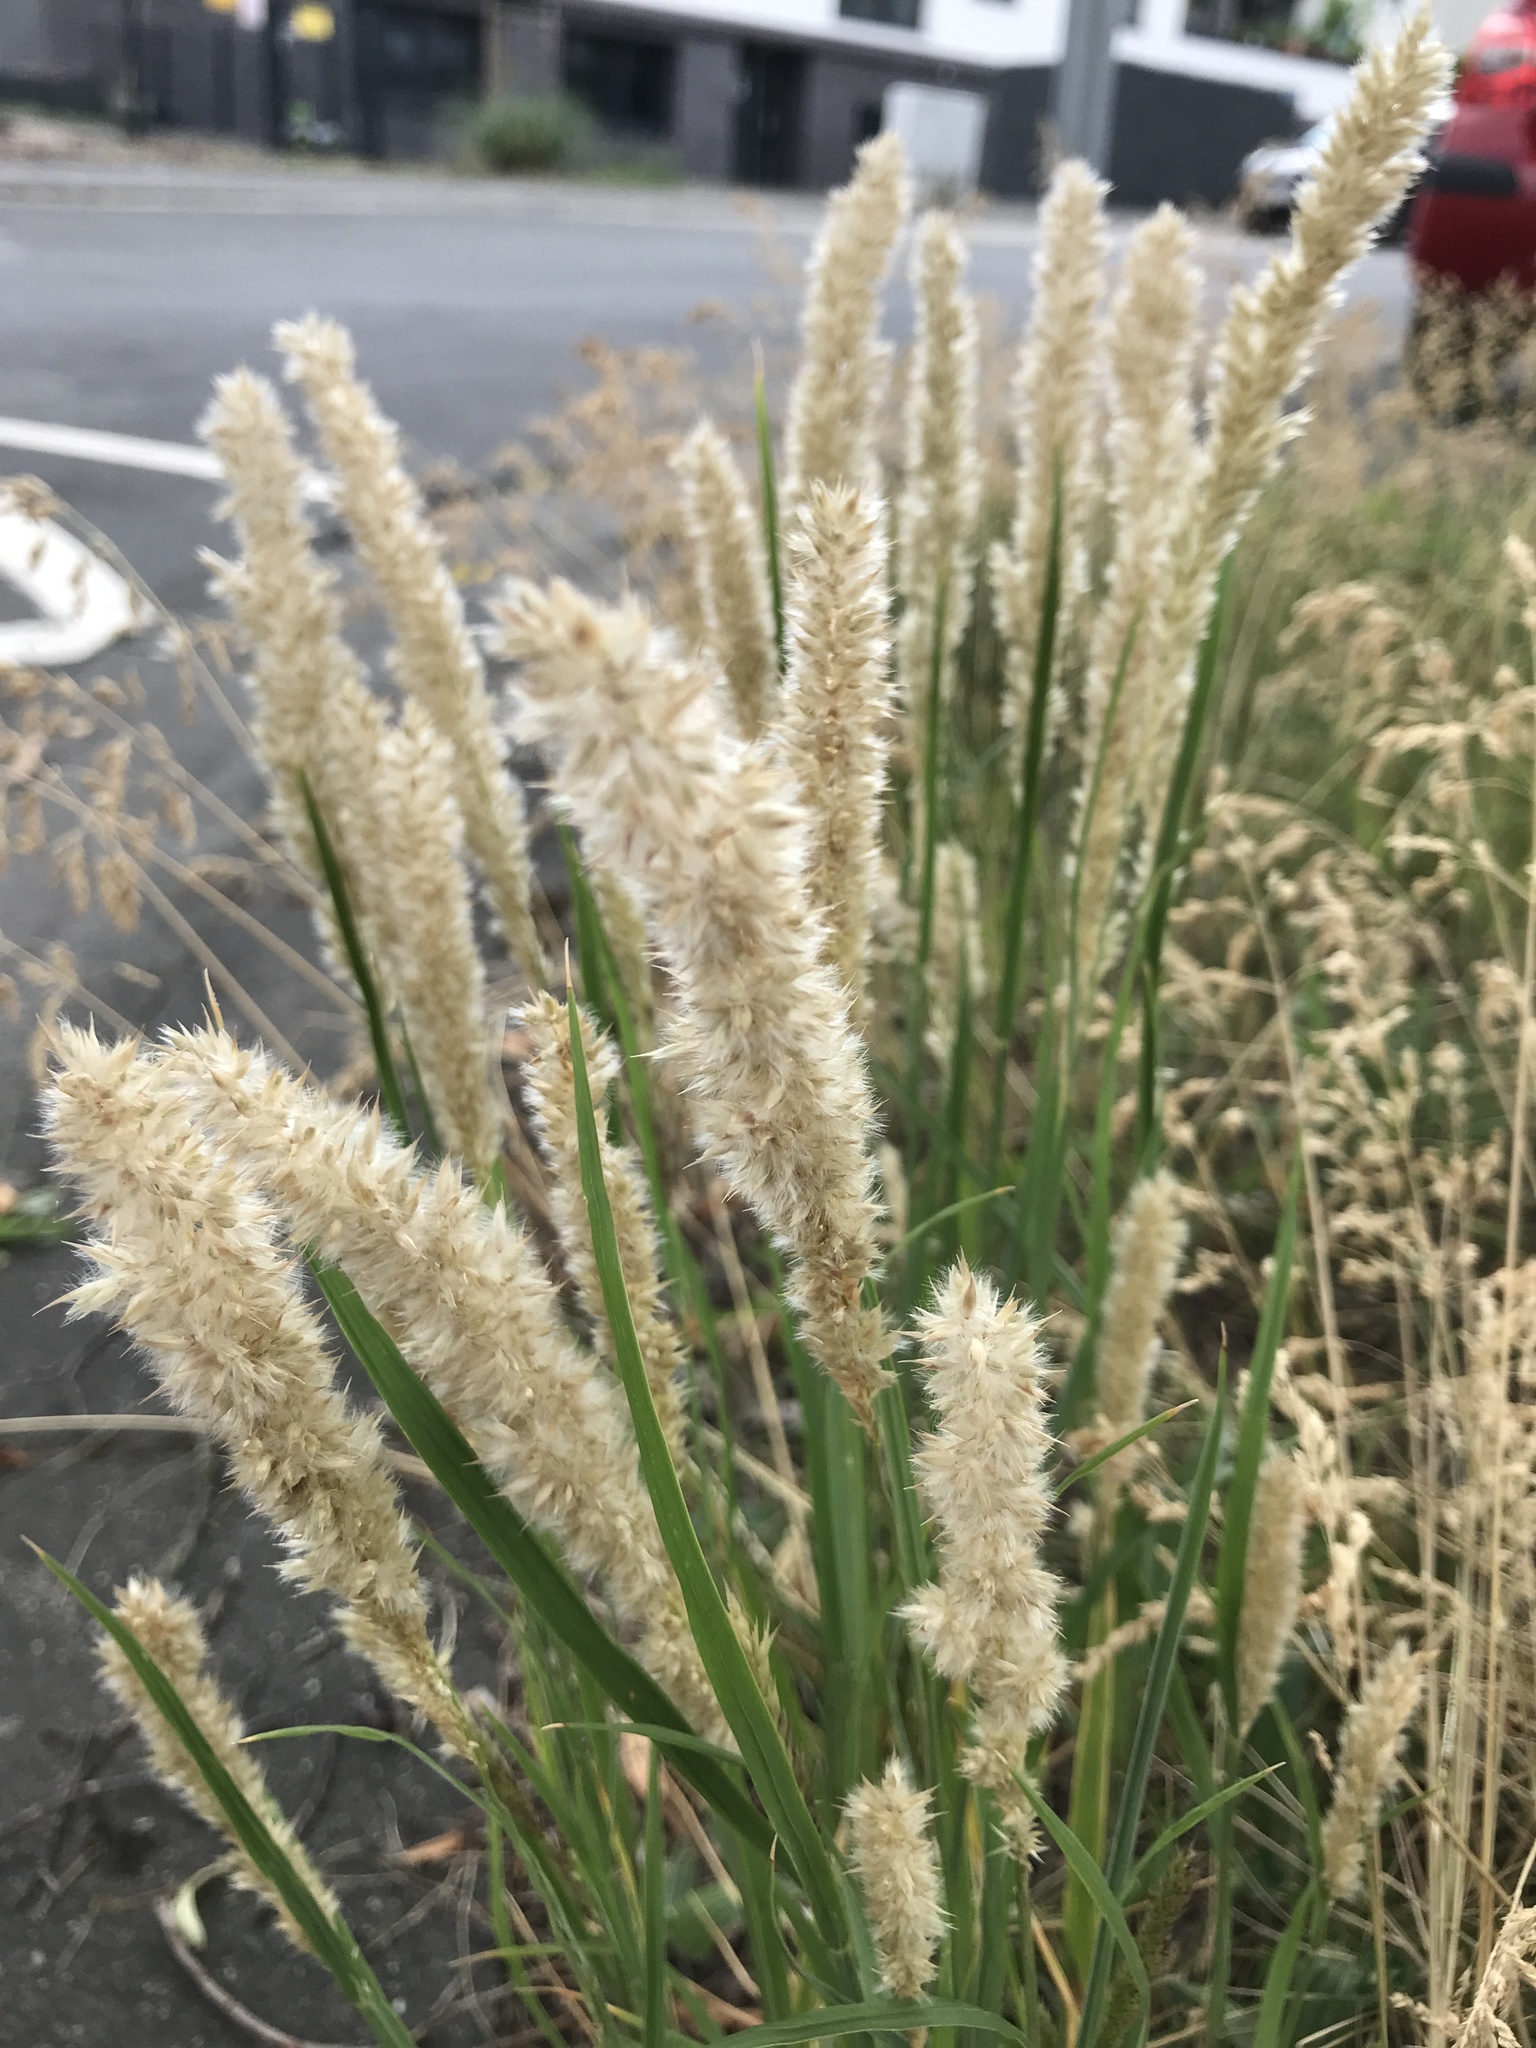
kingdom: Plantae
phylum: Tracheophyta
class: Liliopsida
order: Poales
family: Poaceae
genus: Alopecurus
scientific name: Alopecurus pratensis
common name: Meadow foxtail
